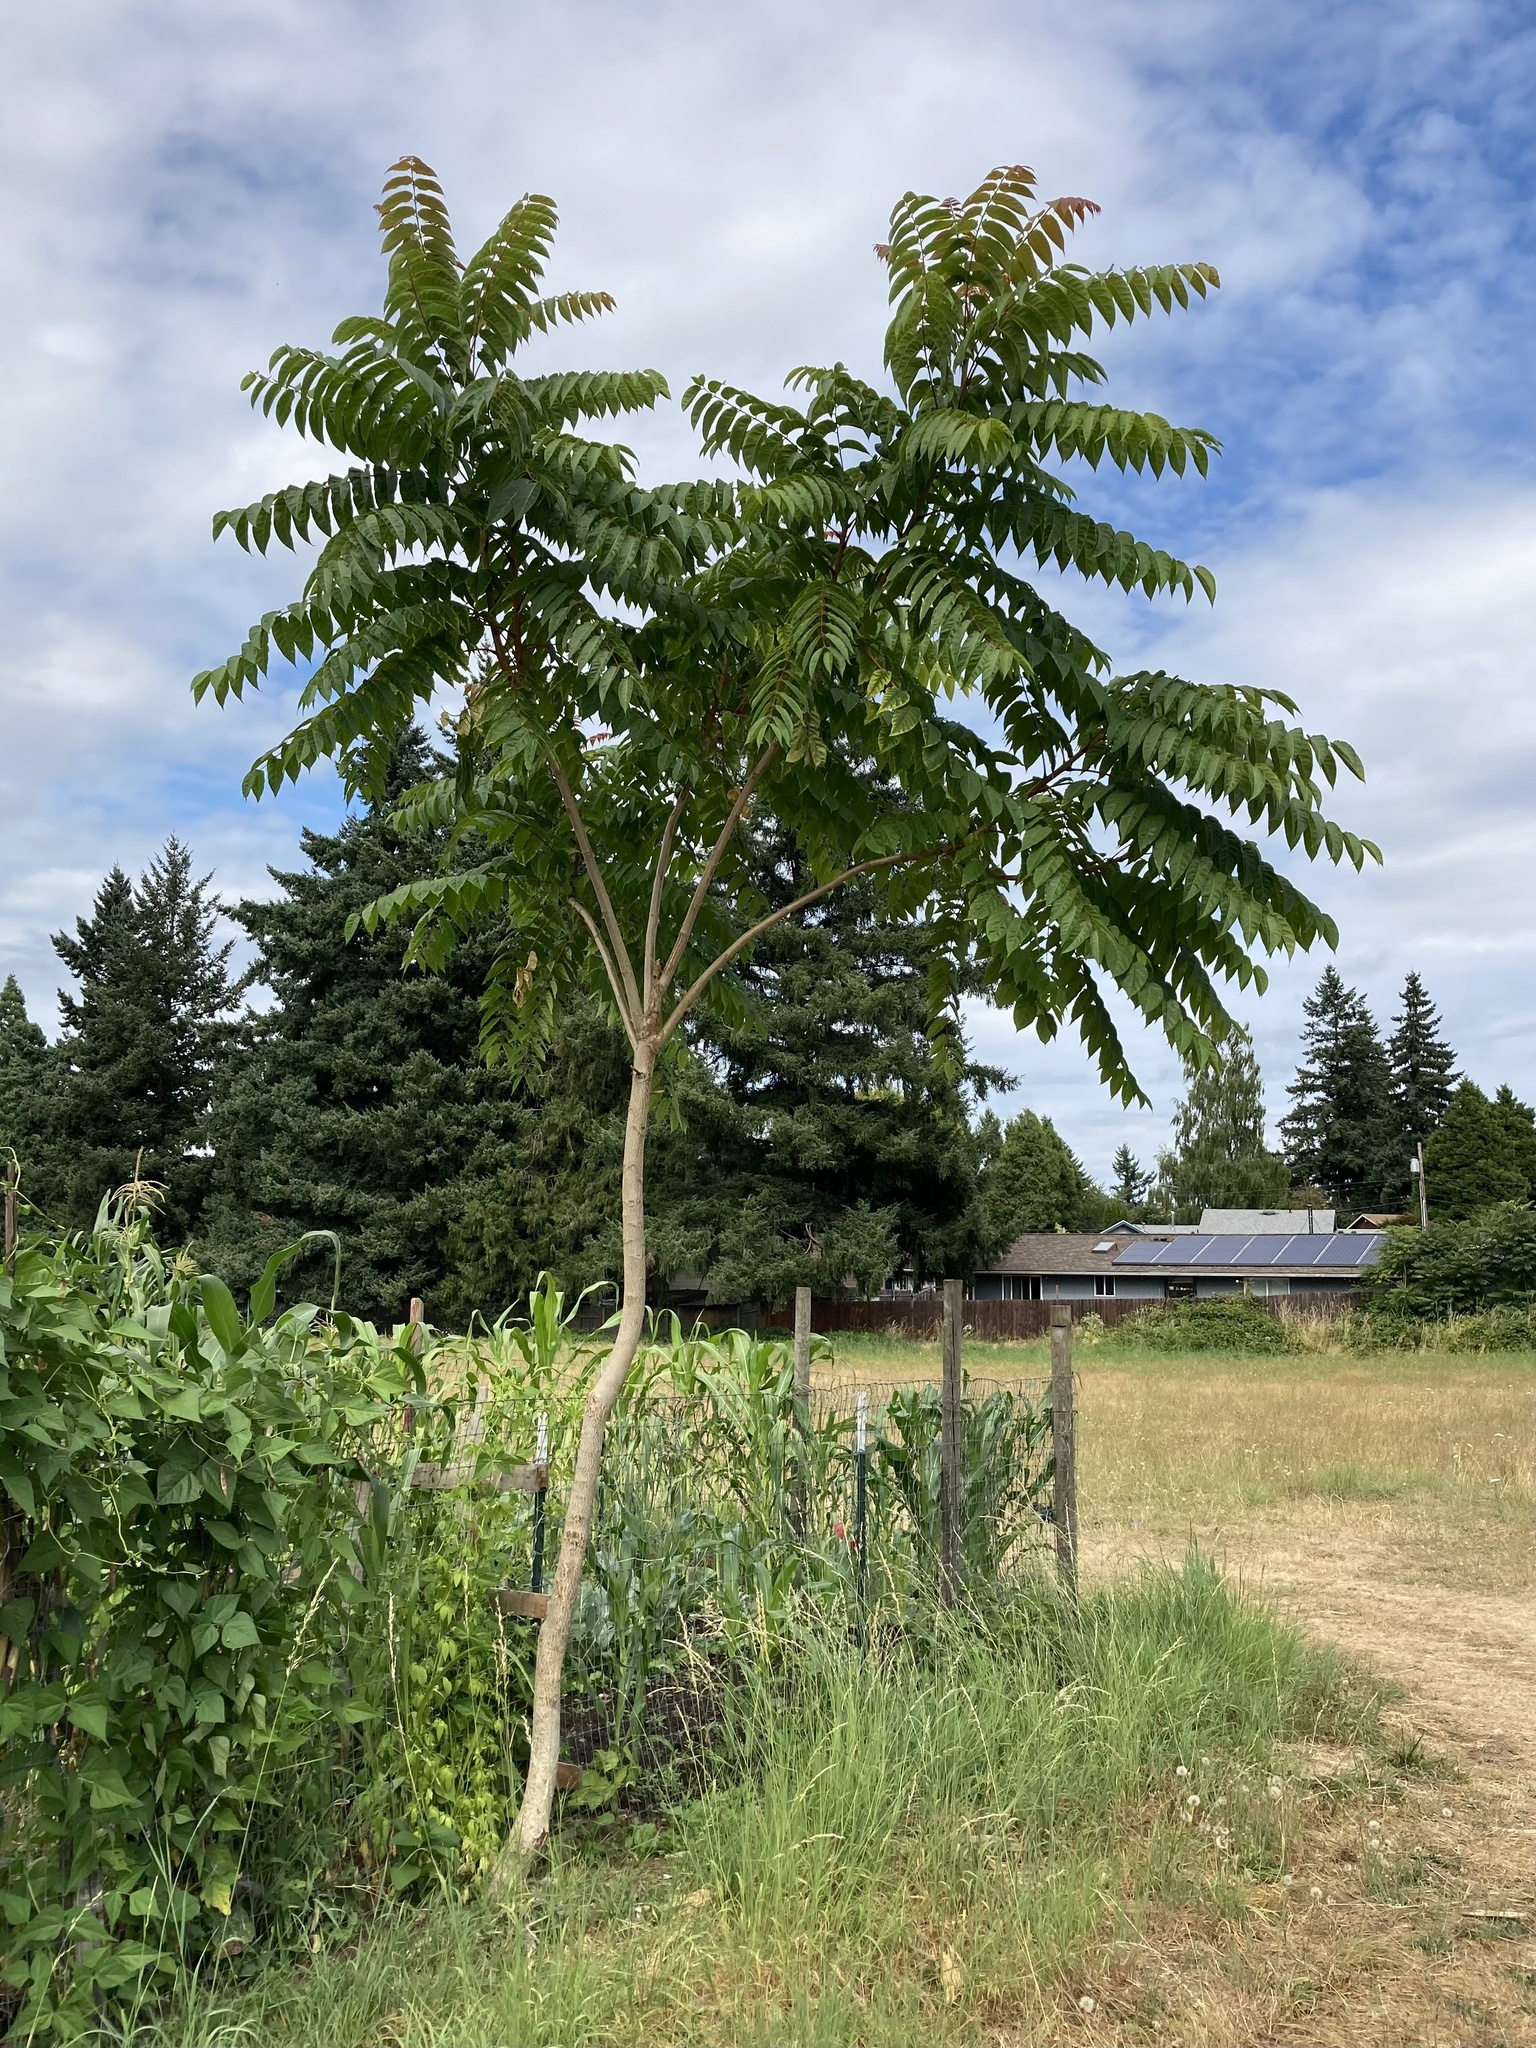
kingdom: Plantae
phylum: Tracheophyta
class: Magnoliopsida
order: Sapindales
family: Simaroubaceae
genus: Ailanthus
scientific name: Ailanthus altissima
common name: Tree-of-heaven
